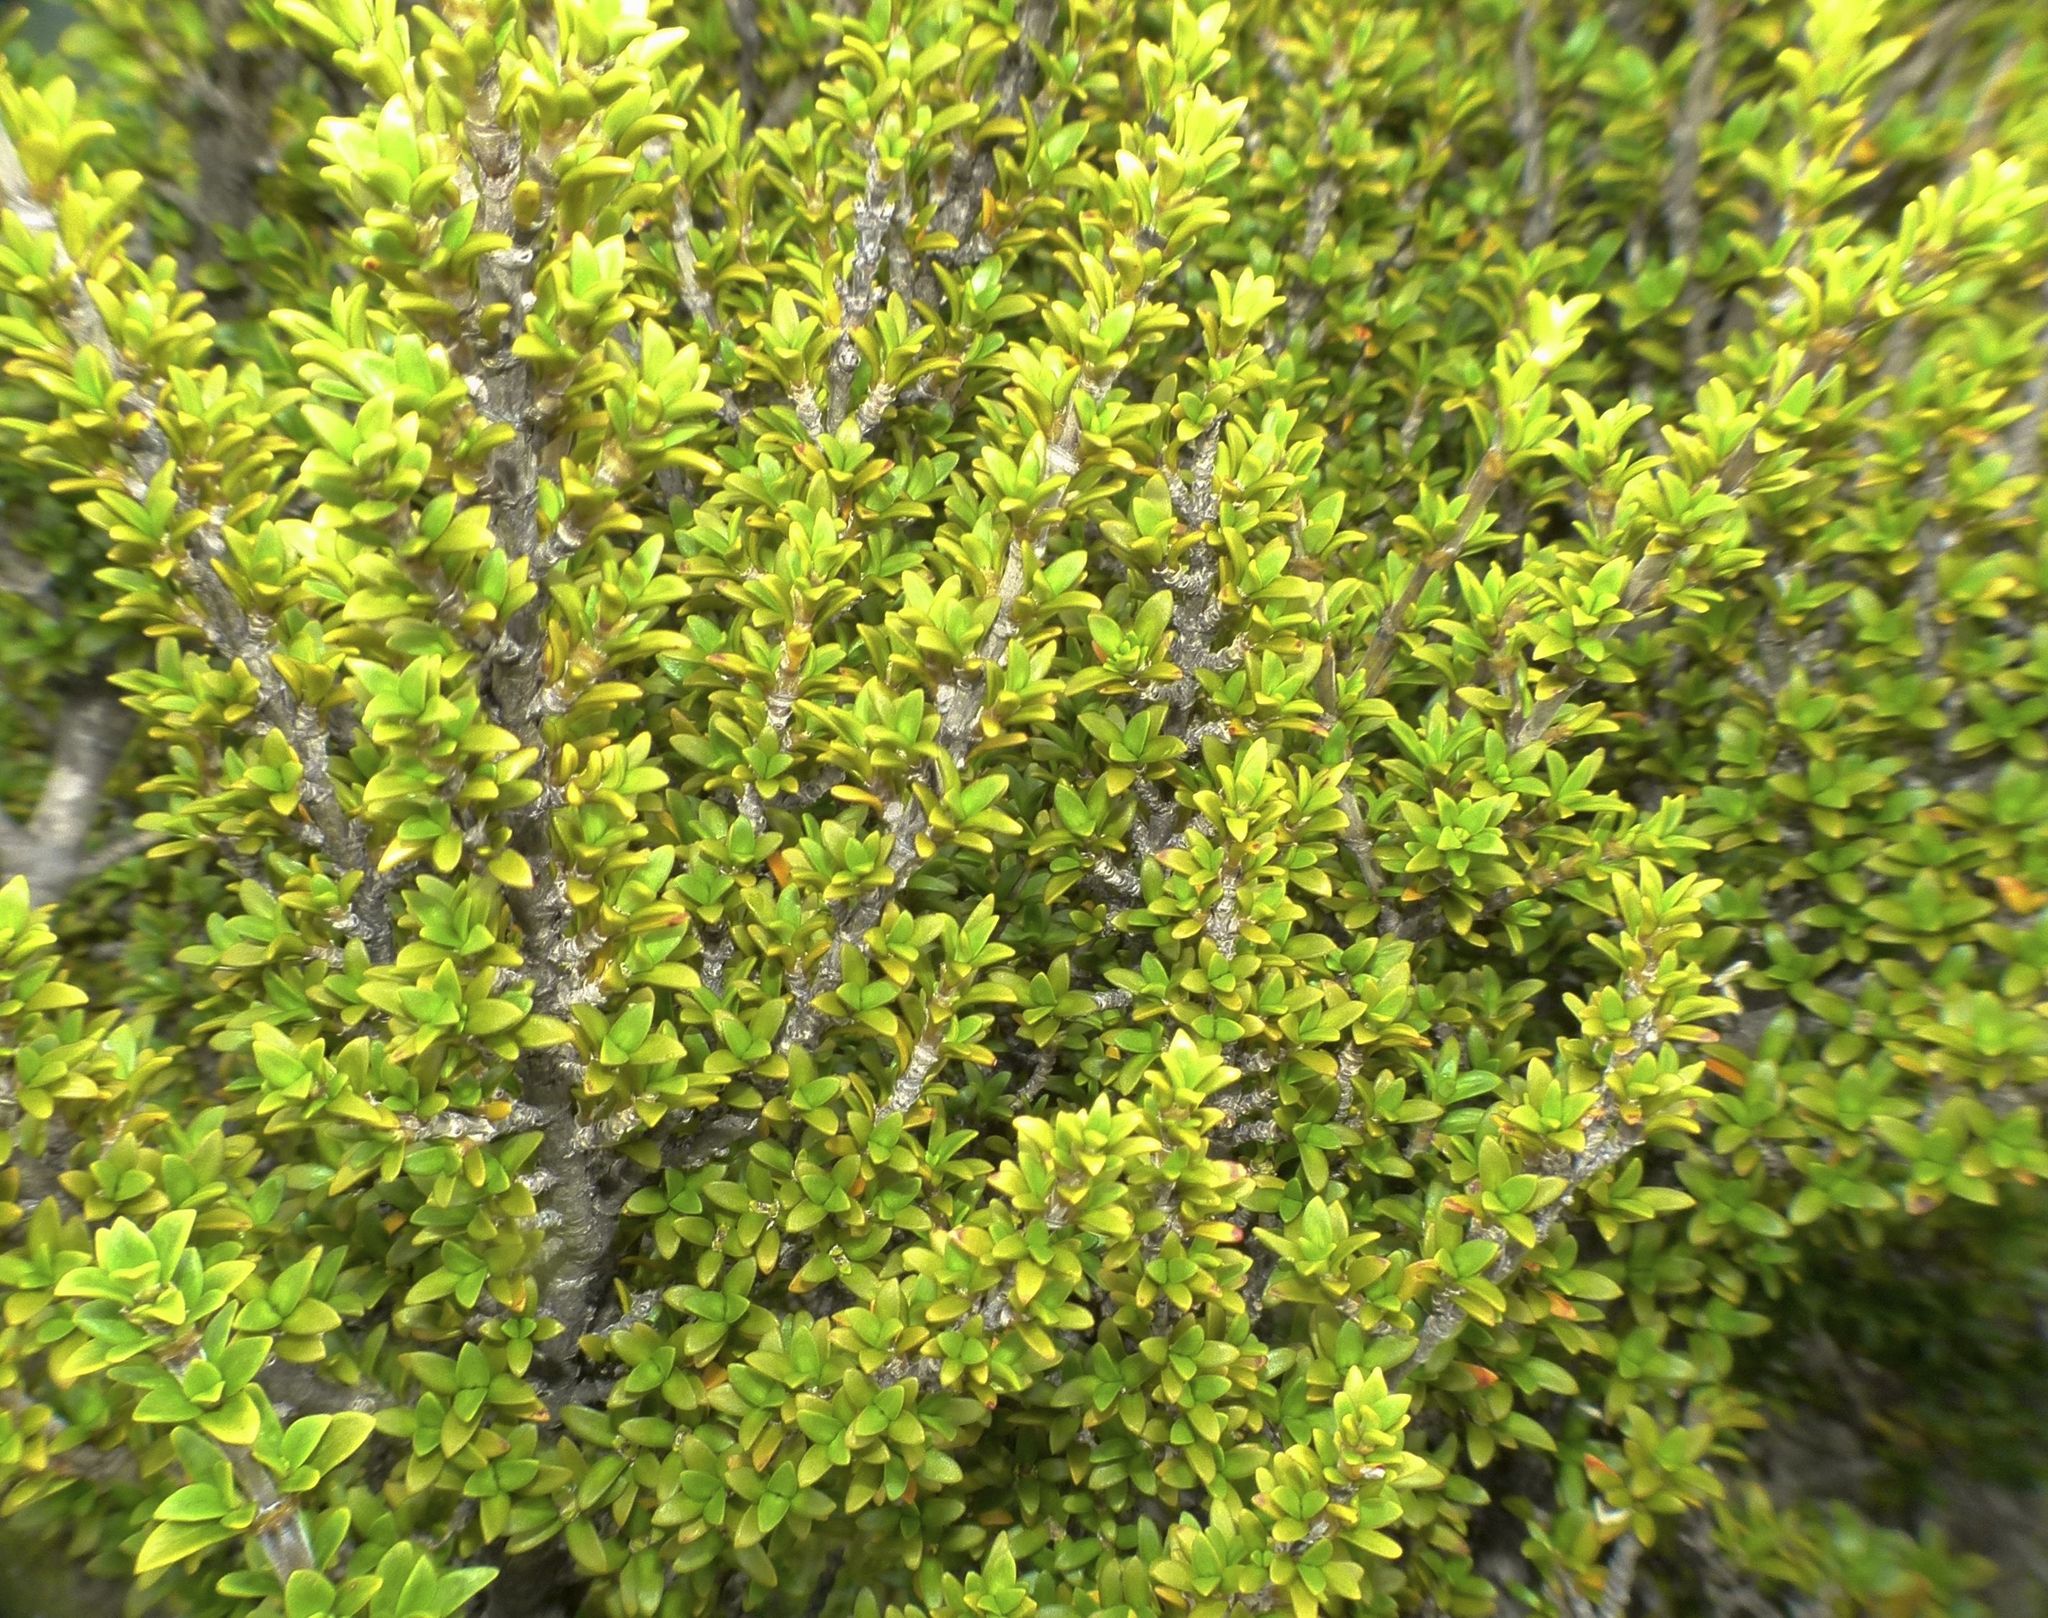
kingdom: Plantae
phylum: Tracheophyta
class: Magnoliopsida
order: Gentianales
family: Rubiaceae
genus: Coprosma
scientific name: Coprosma pseudocuneata
